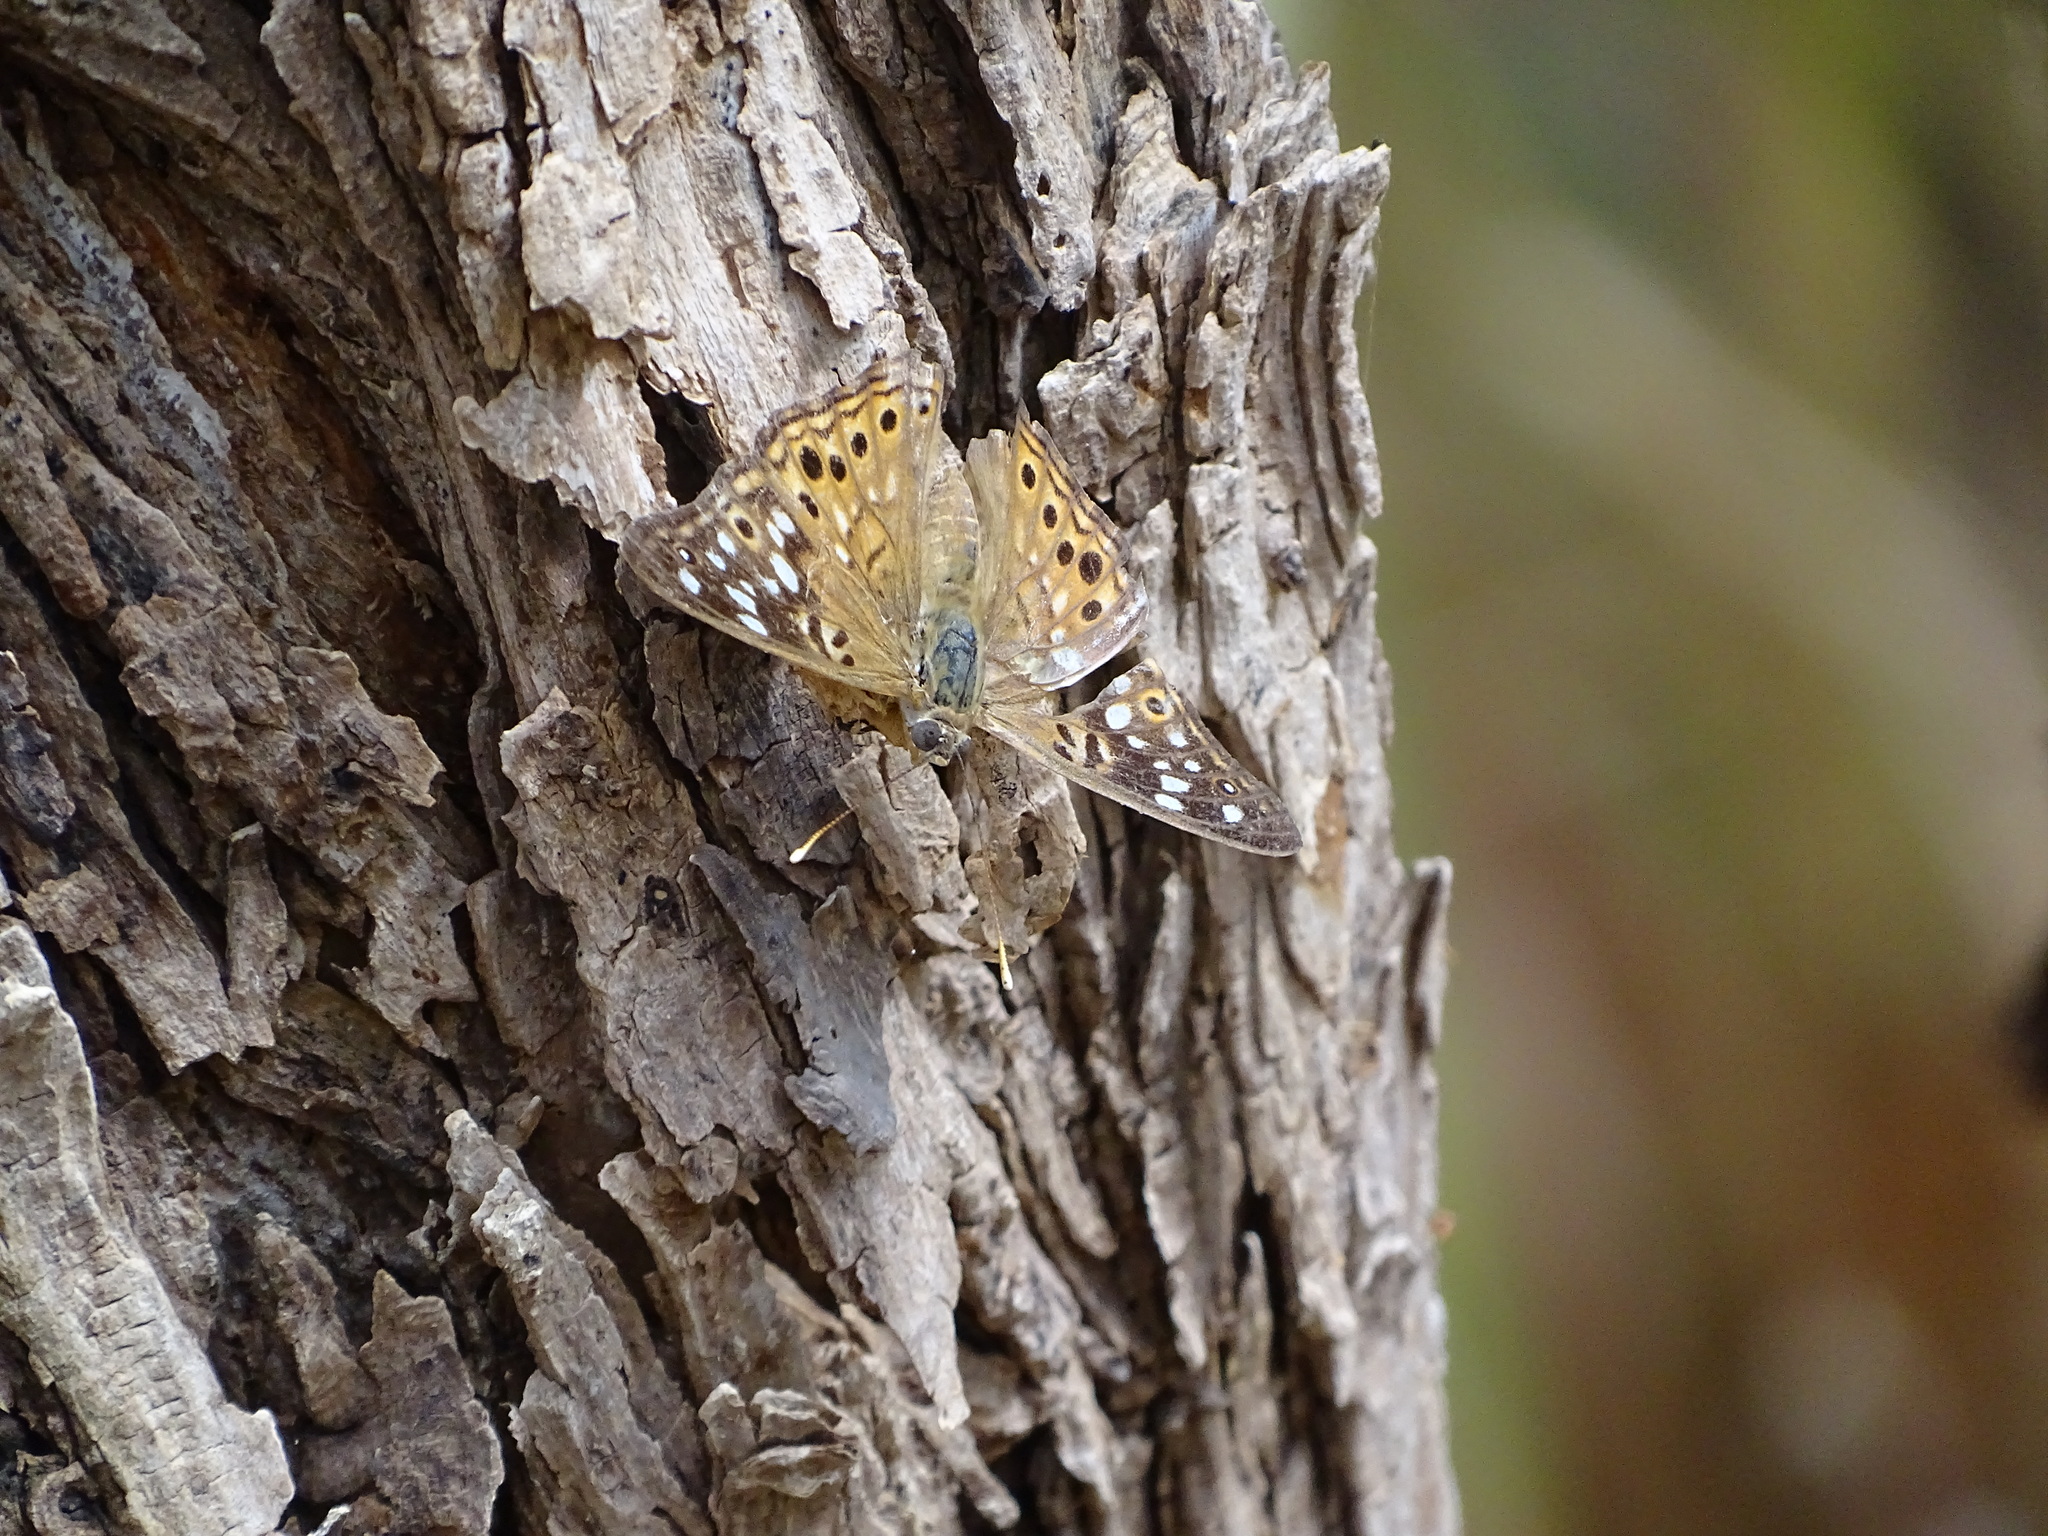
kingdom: Animalia
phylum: Arthropoda
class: Insecta
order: Lepidoptera
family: Nymphalidae
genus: Asterocampa
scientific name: Asterocampa celtis
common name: Hackberry emperor
